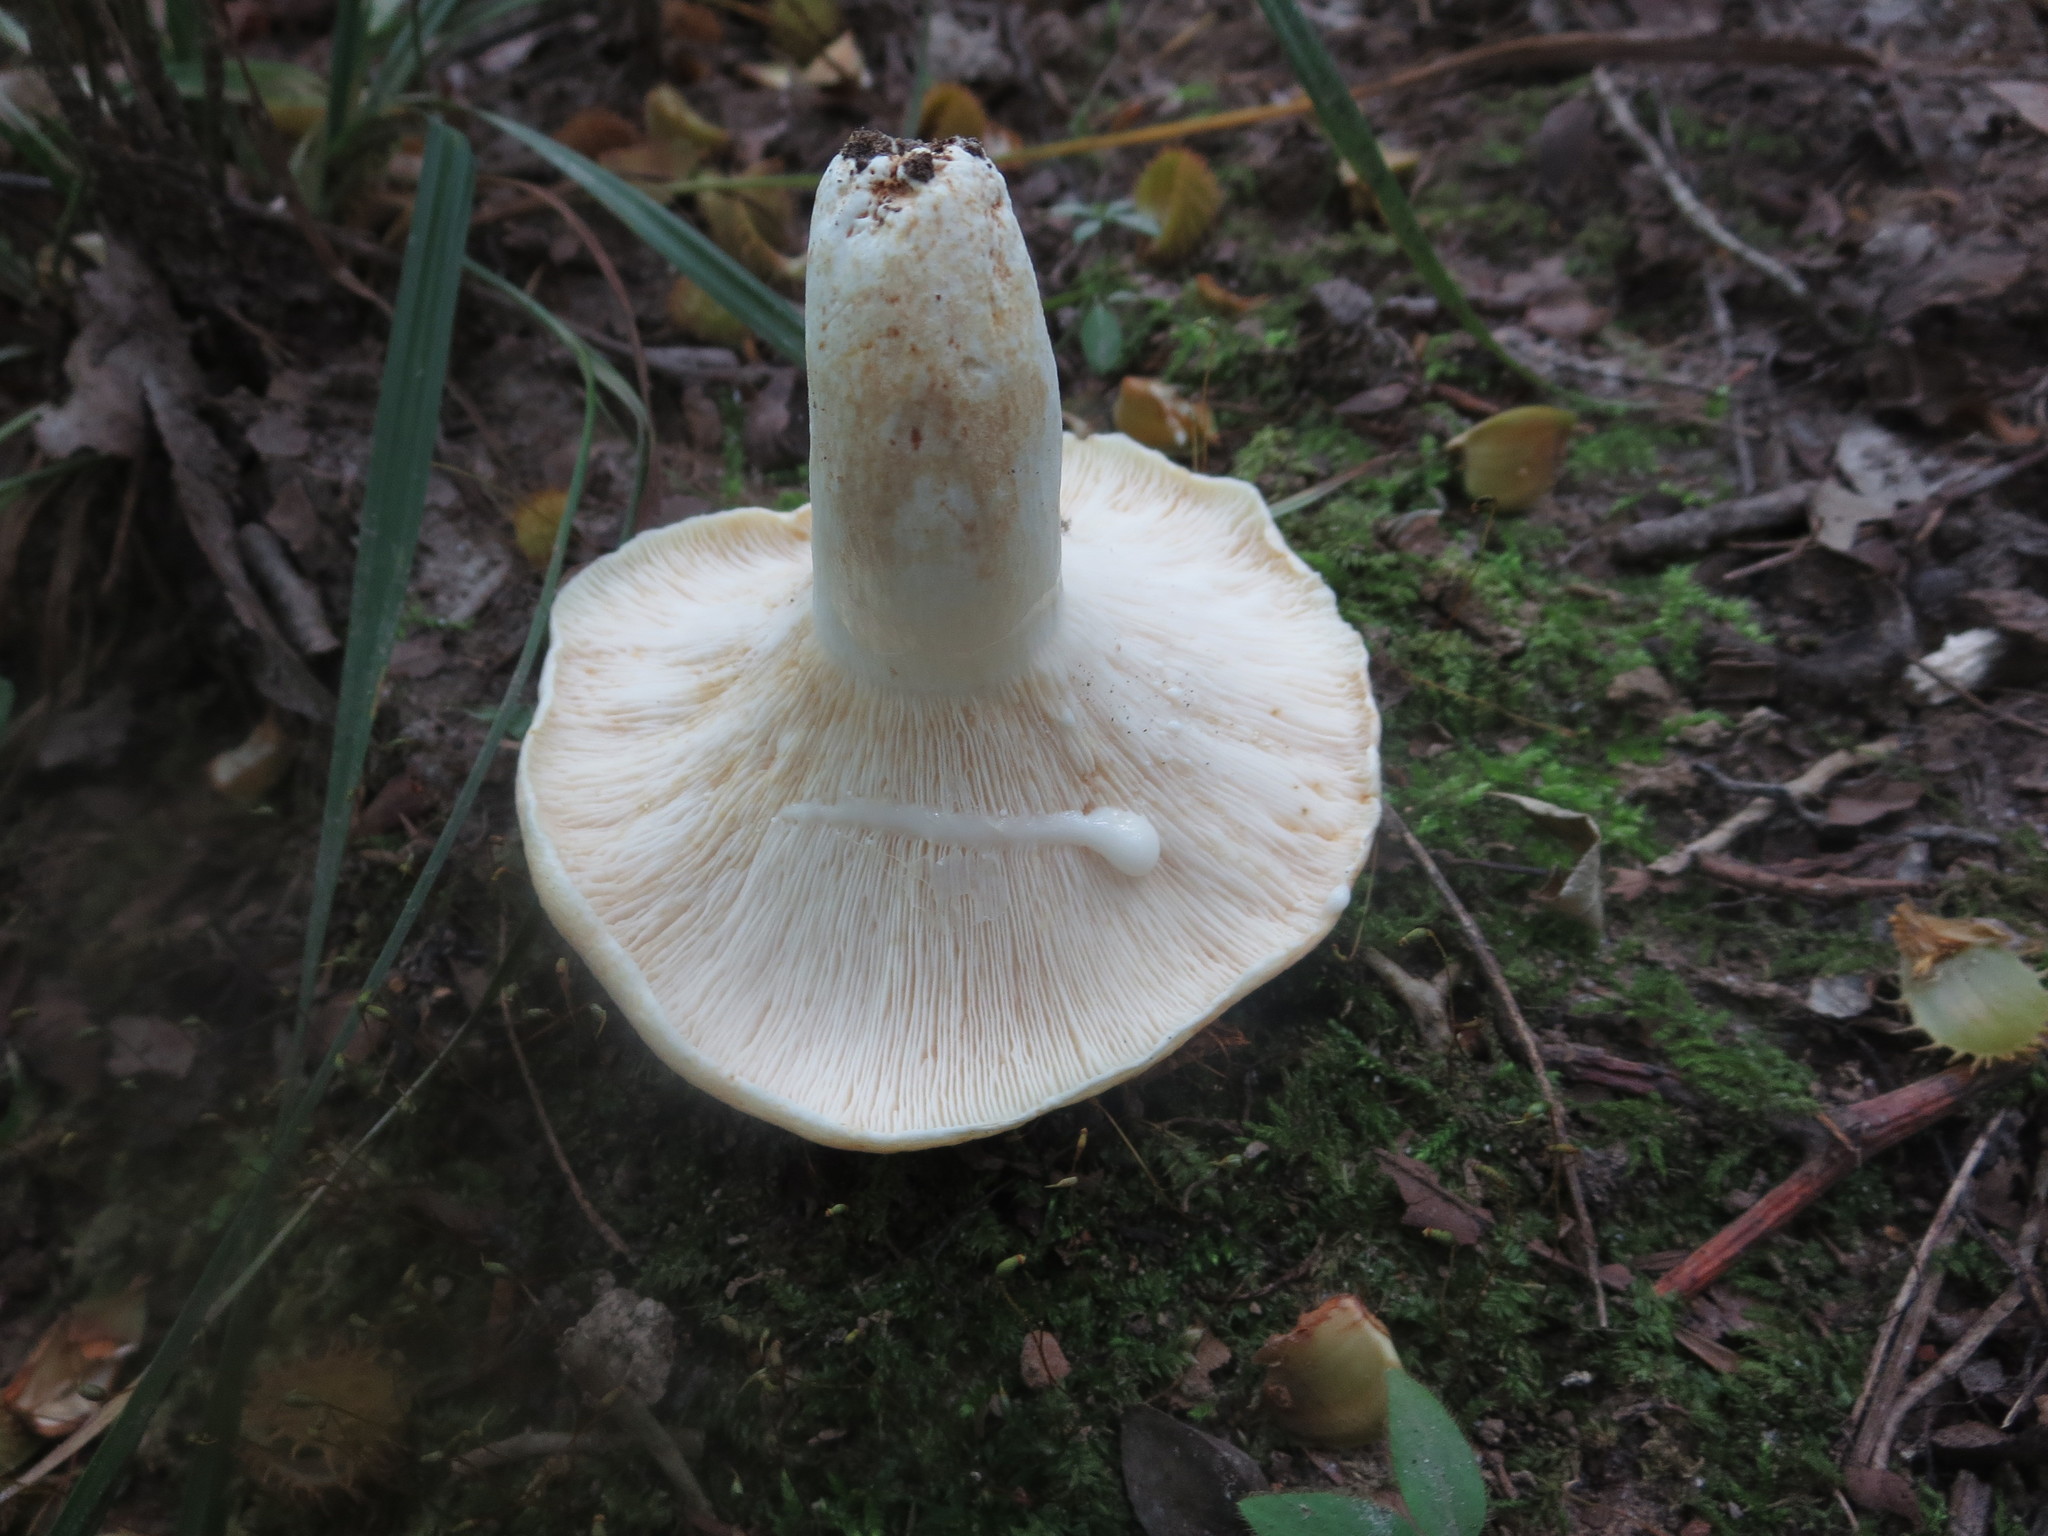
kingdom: Fungi
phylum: Basidiomycota
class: Agaricomycetes
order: Russulales
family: Russulaceae
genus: Lactifluus
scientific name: Lactifluus piperatus
